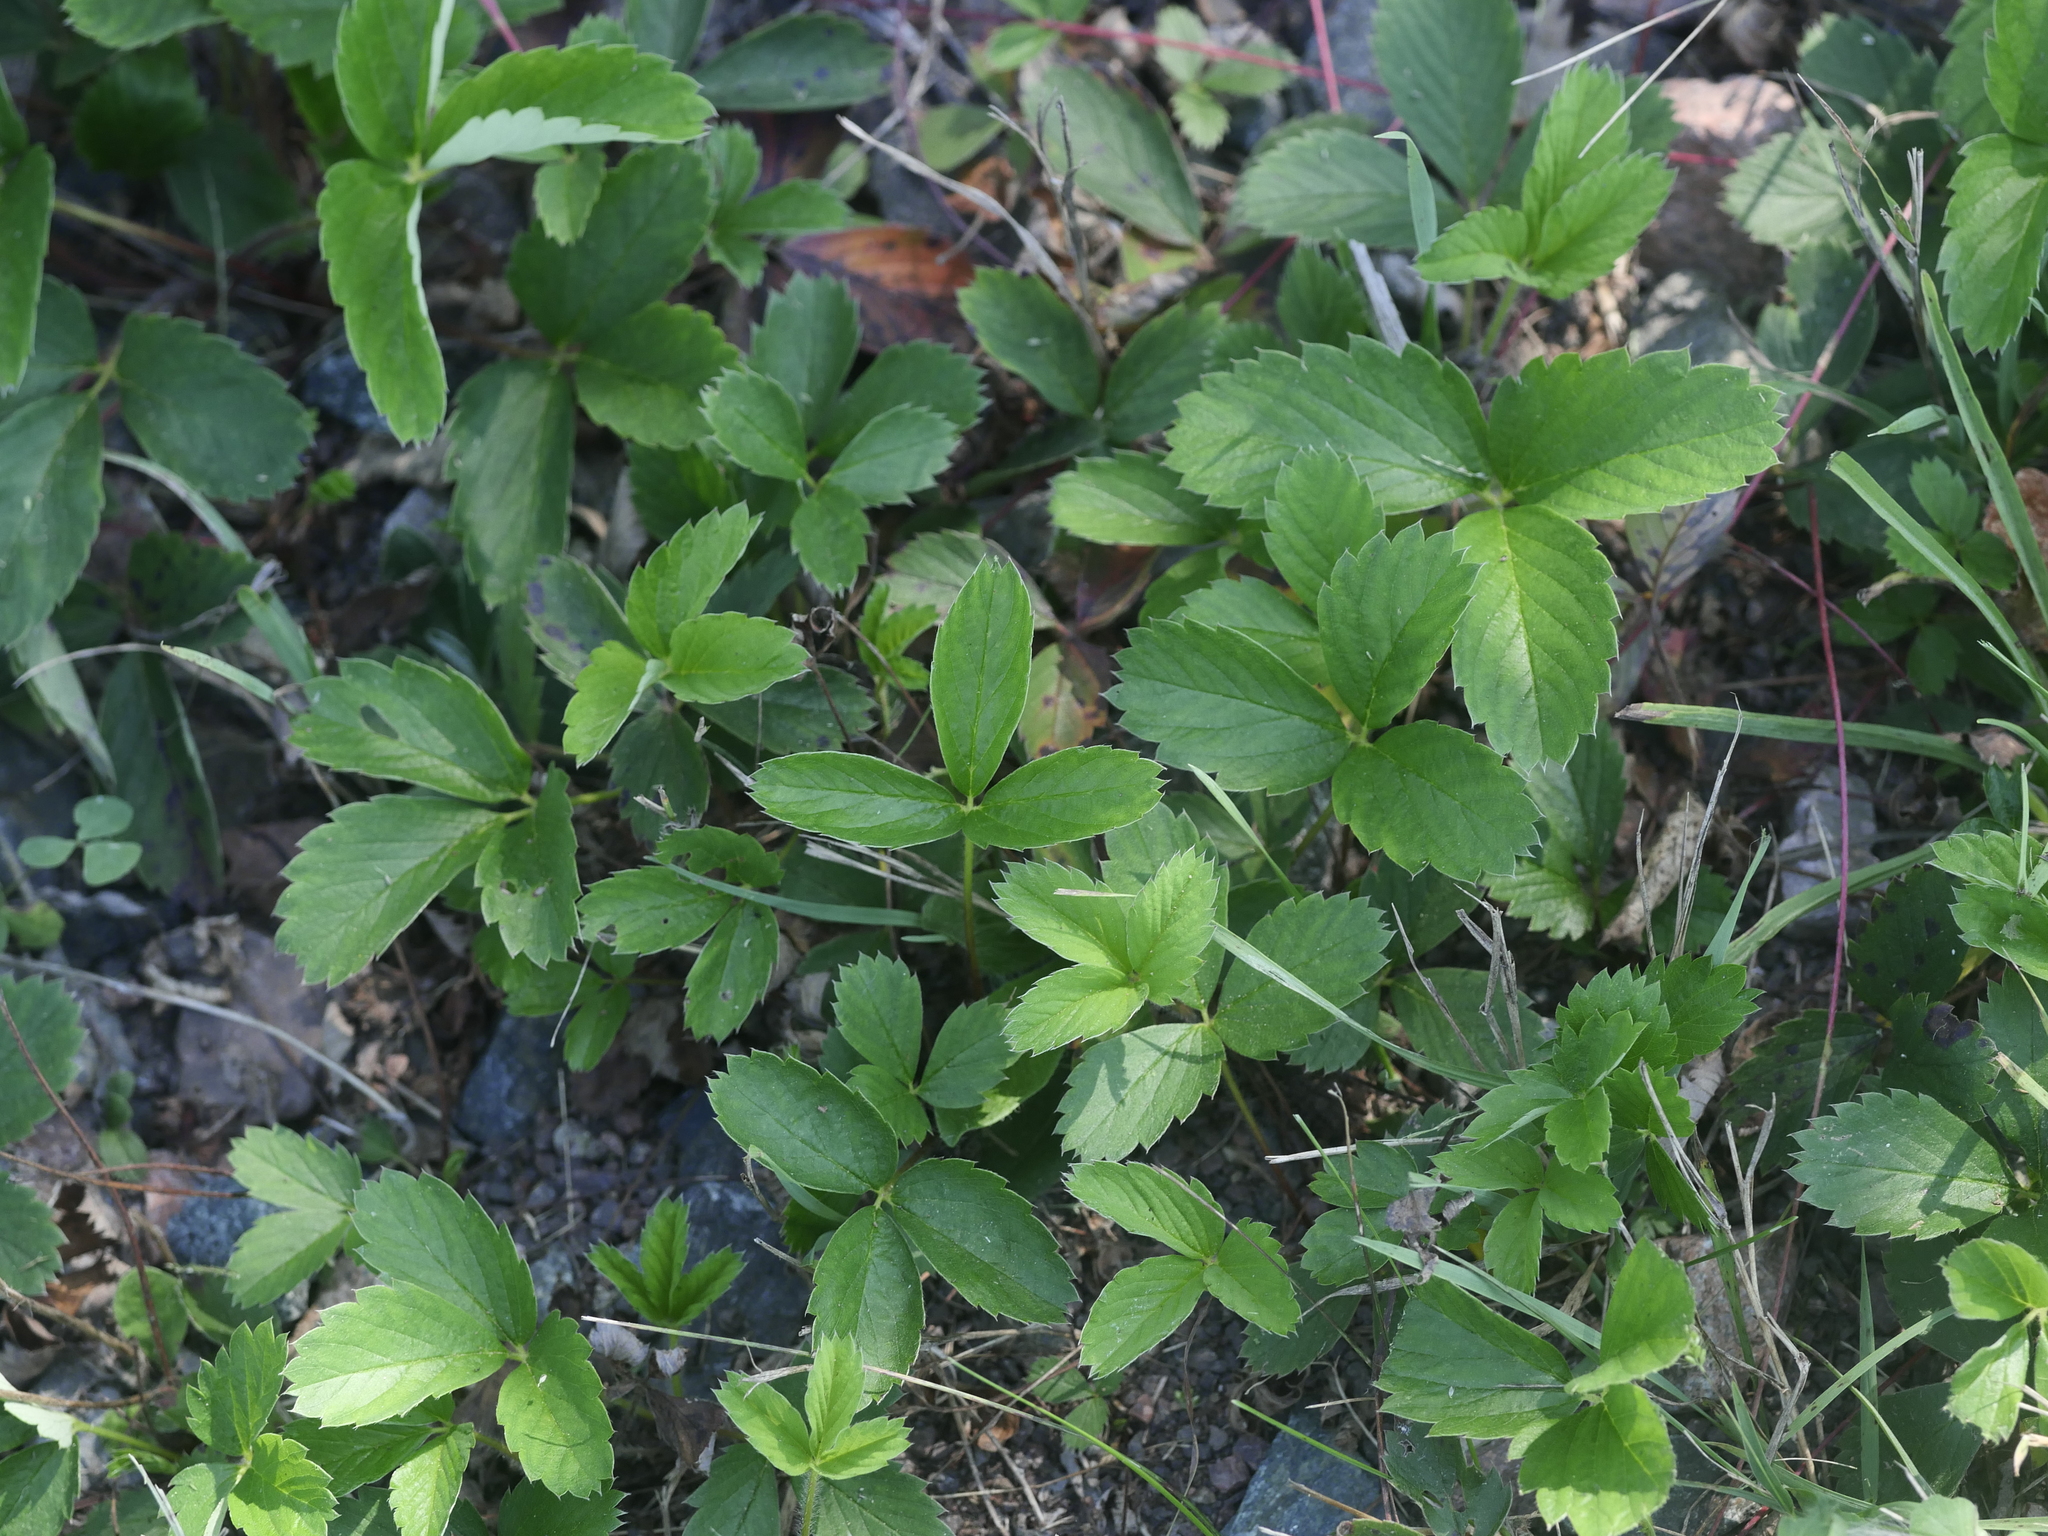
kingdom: Plantae
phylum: Tracheophyta
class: Magnoliopsida
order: Rosales
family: Rosaceae
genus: Fragaria
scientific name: Fragaria virginiana
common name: Thickleaved wild strawberry
